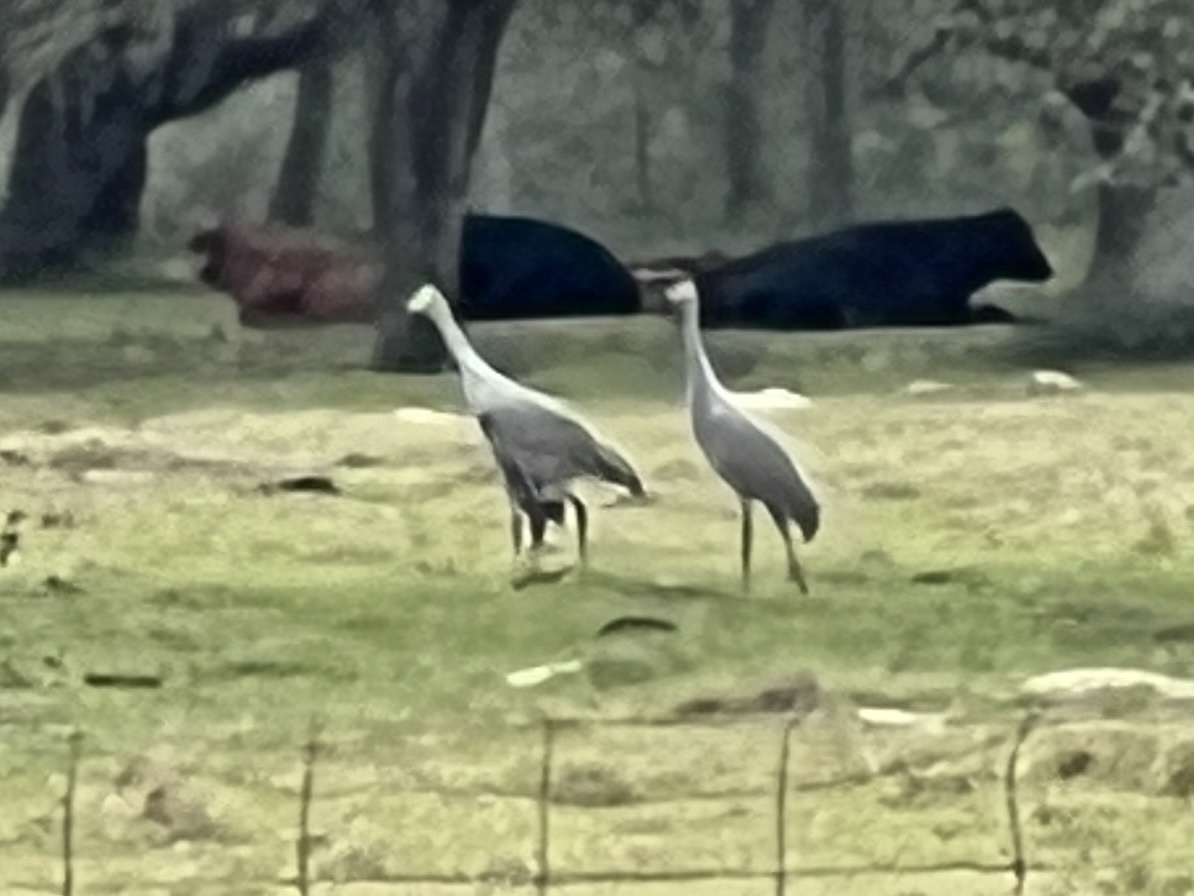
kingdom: Animalia
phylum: Chordata
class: Aves
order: Gruiformes
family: Gruidae
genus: Grus
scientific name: Grus canadensis
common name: Sandhill crane
